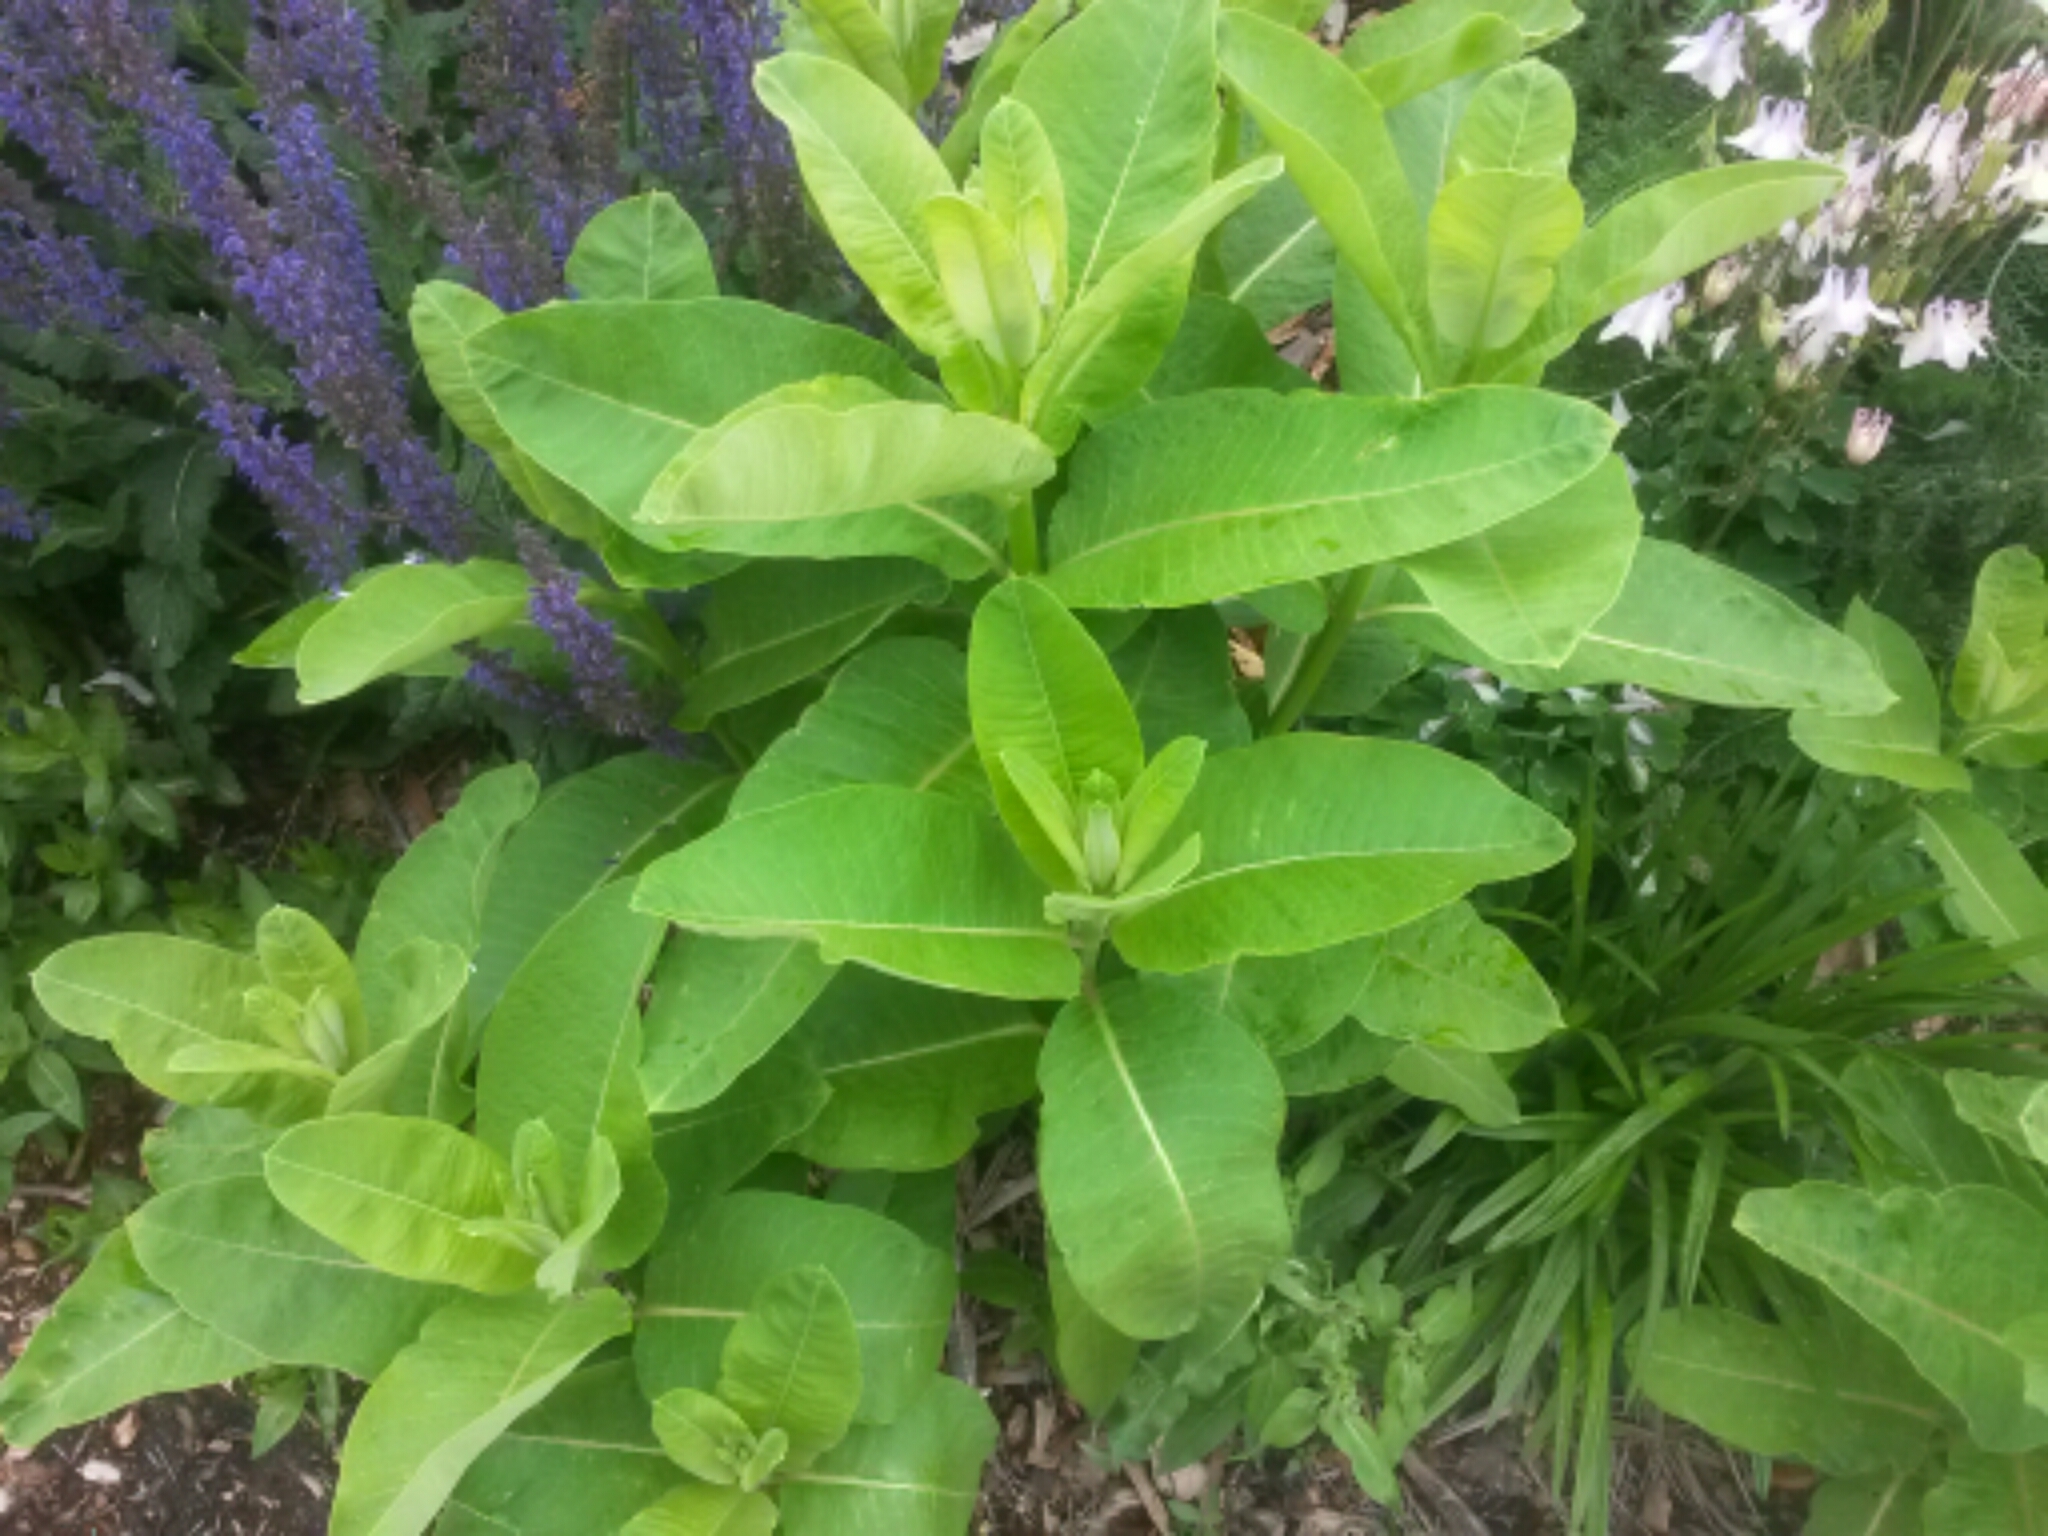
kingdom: Plantae
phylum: Tracheophyta
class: Magnoliopsida
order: Gentianales
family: Apocynaceae
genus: Asclepias
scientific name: Asclepias syriaca
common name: Common milkweed
